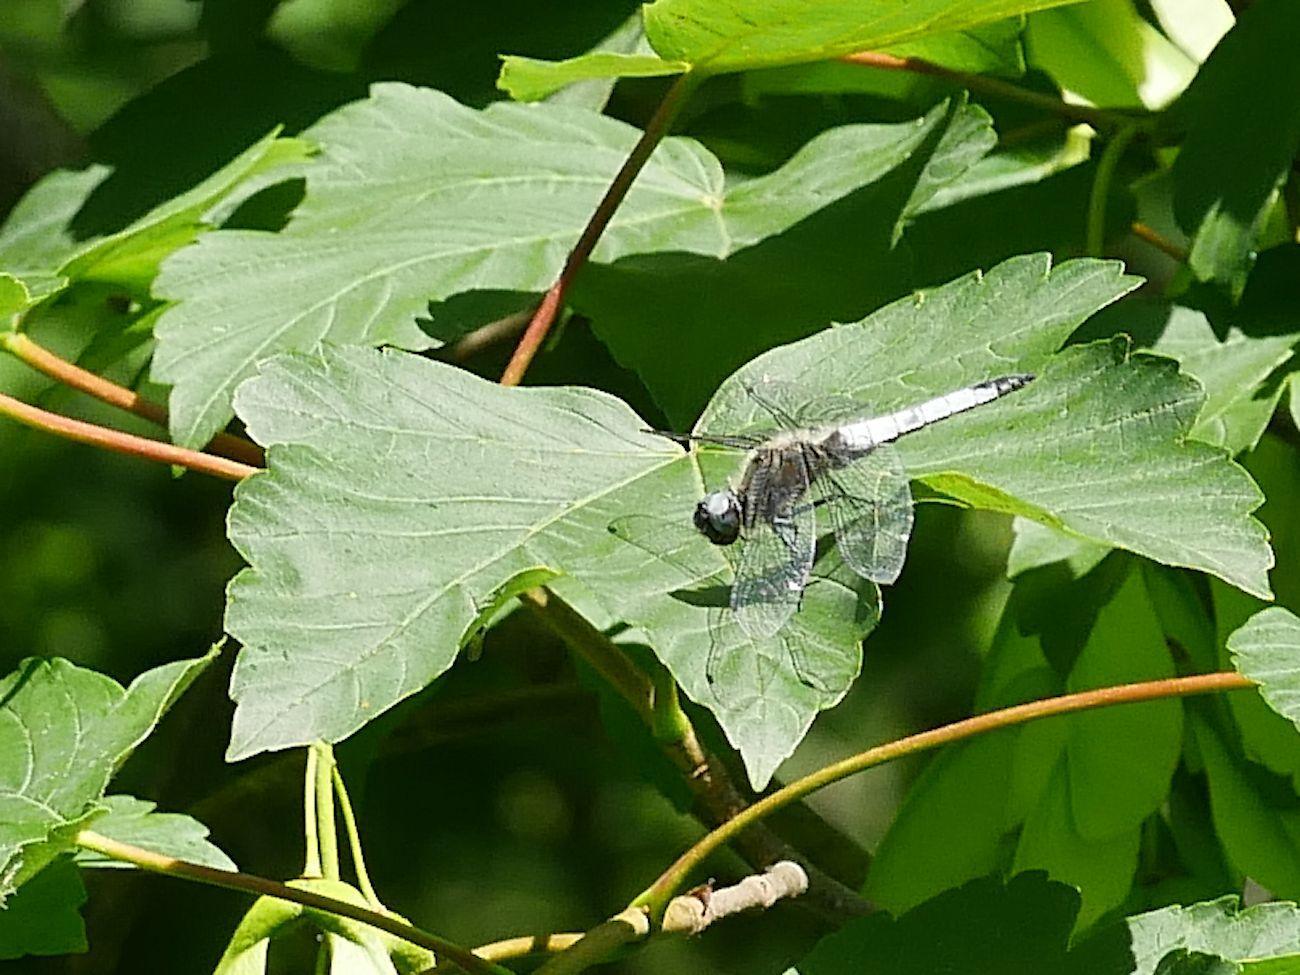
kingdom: Animalia
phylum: Arthropoda
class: Insecta
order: Odonata
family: Libellulidae
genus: Libellula
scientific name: Libellula fulva
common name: Blue chaser
